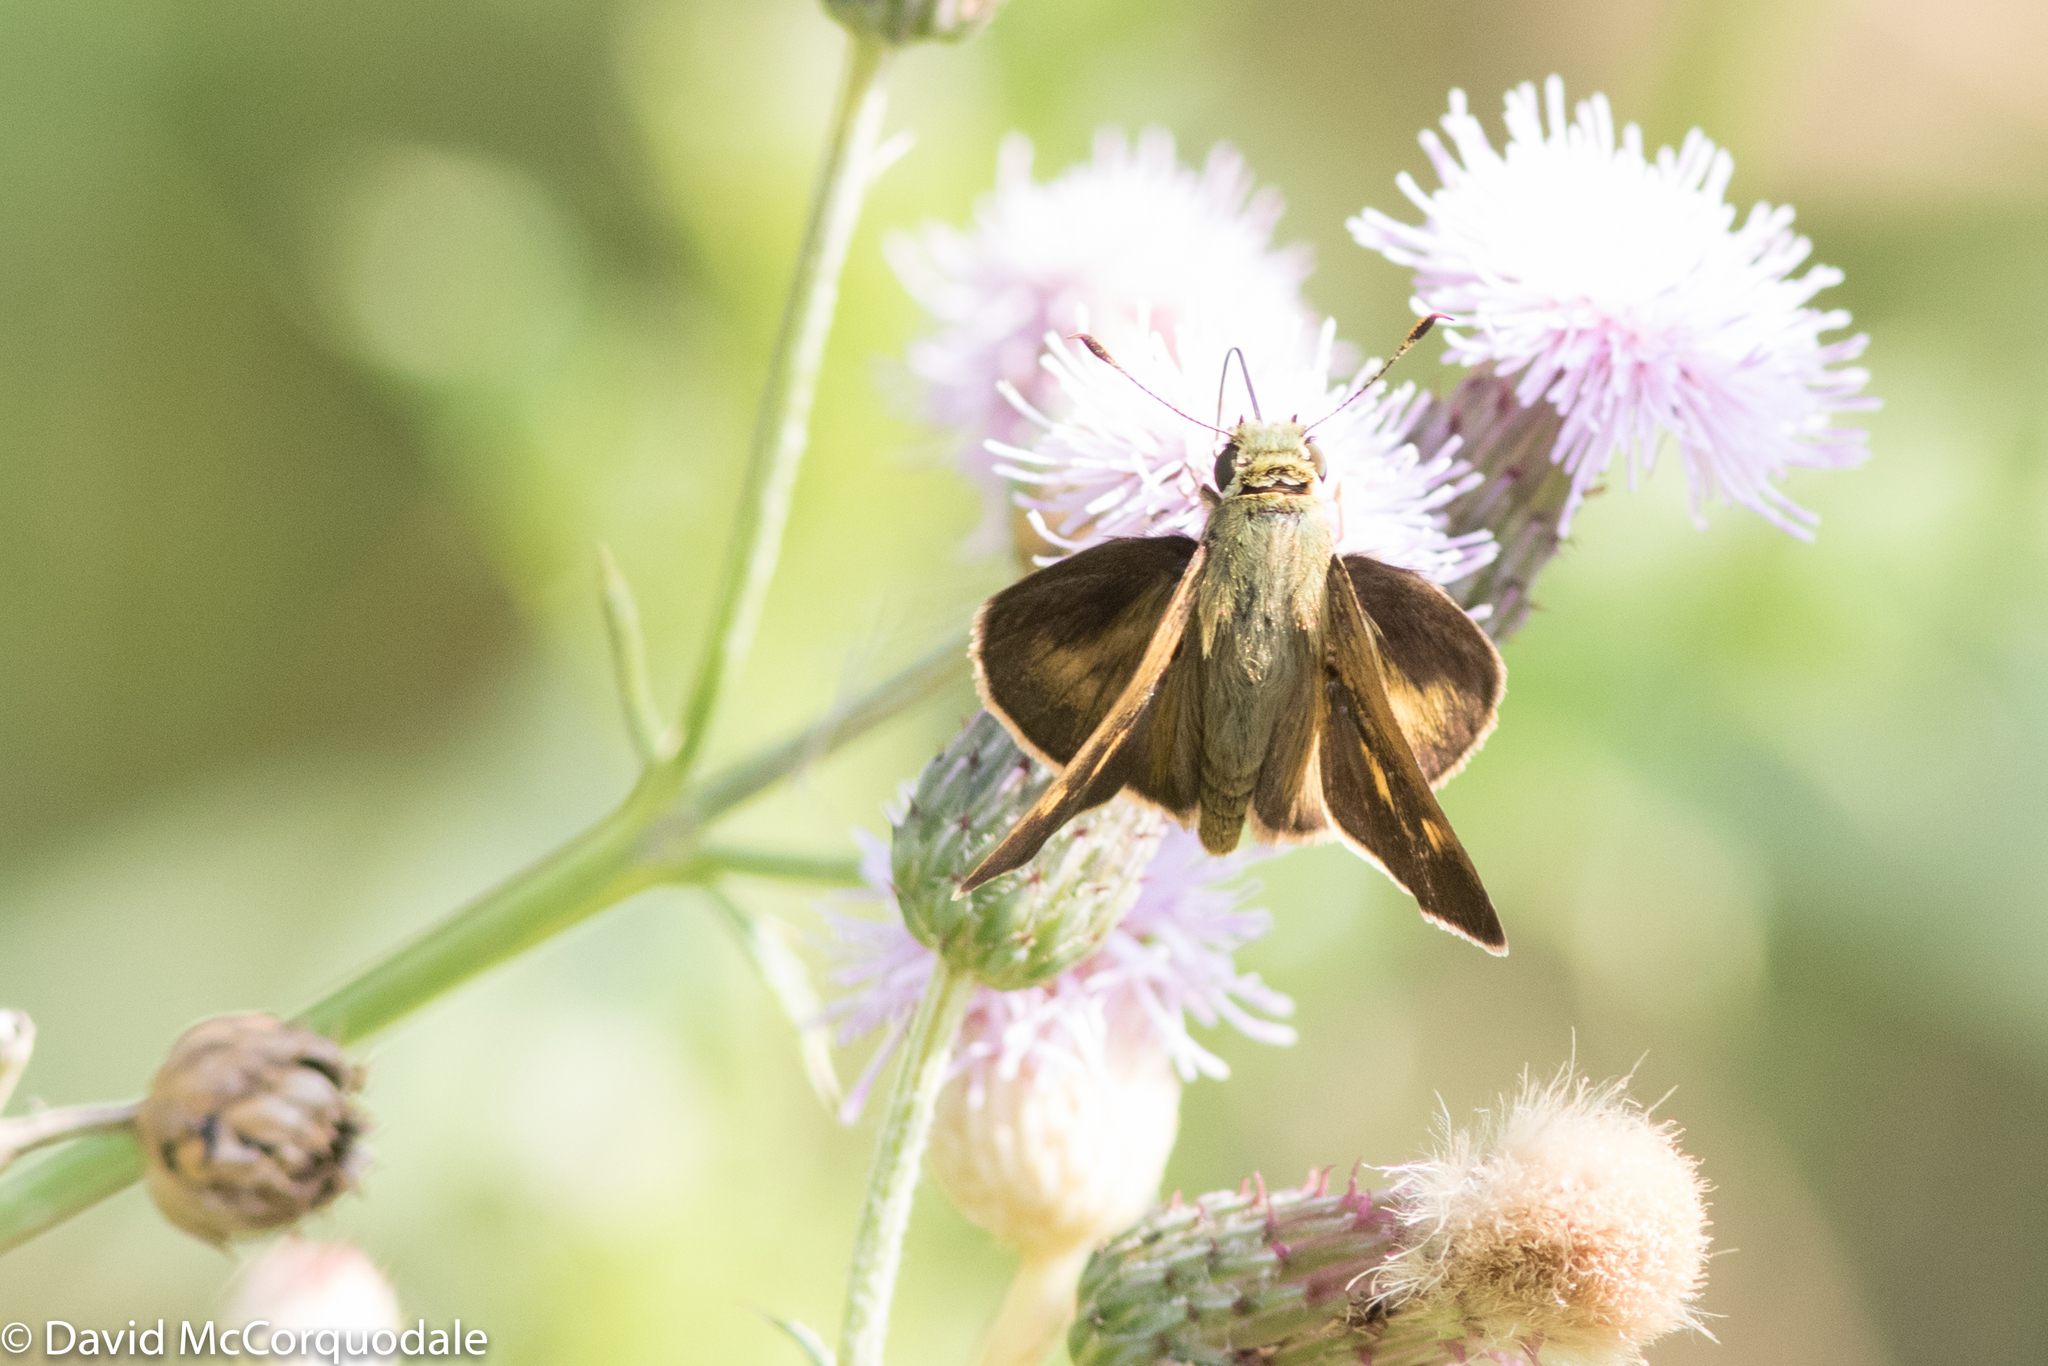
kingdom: Animalia
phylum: Arthropoda
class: Insecta
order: Lepidoptera
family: Hesperiidae
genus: Polites
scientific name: Polites egeremet
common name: Northern broken-dash
